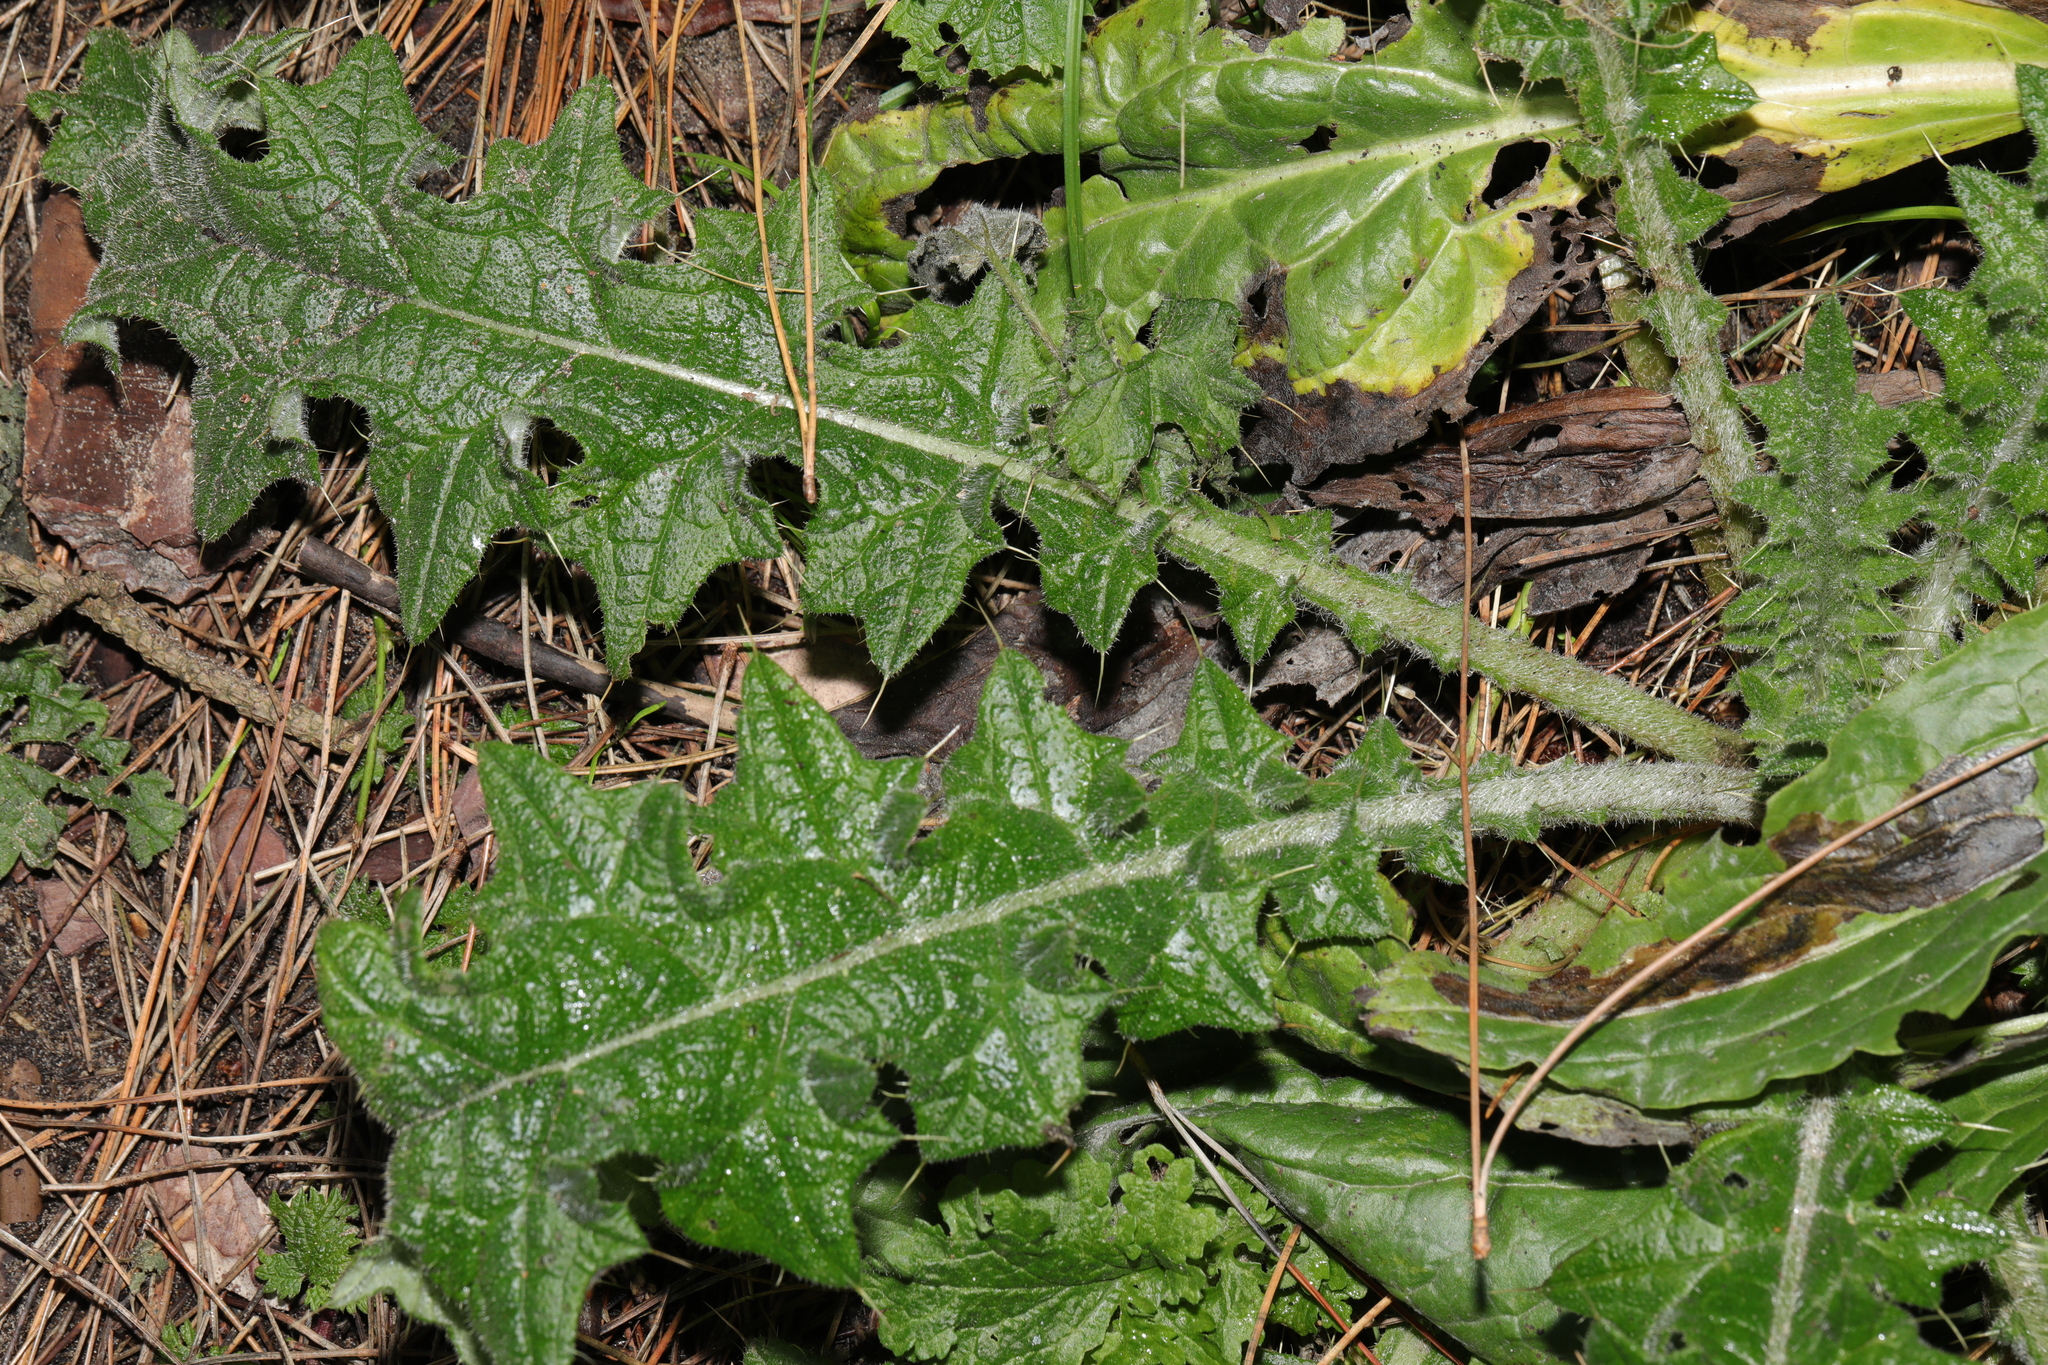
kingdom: Plantae
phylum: Tracheophyta
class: Magnoliopsida
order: Asterales
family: Asteraceae
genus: Cirsium
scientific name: Cirsium vulgare
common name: Bull thistle
